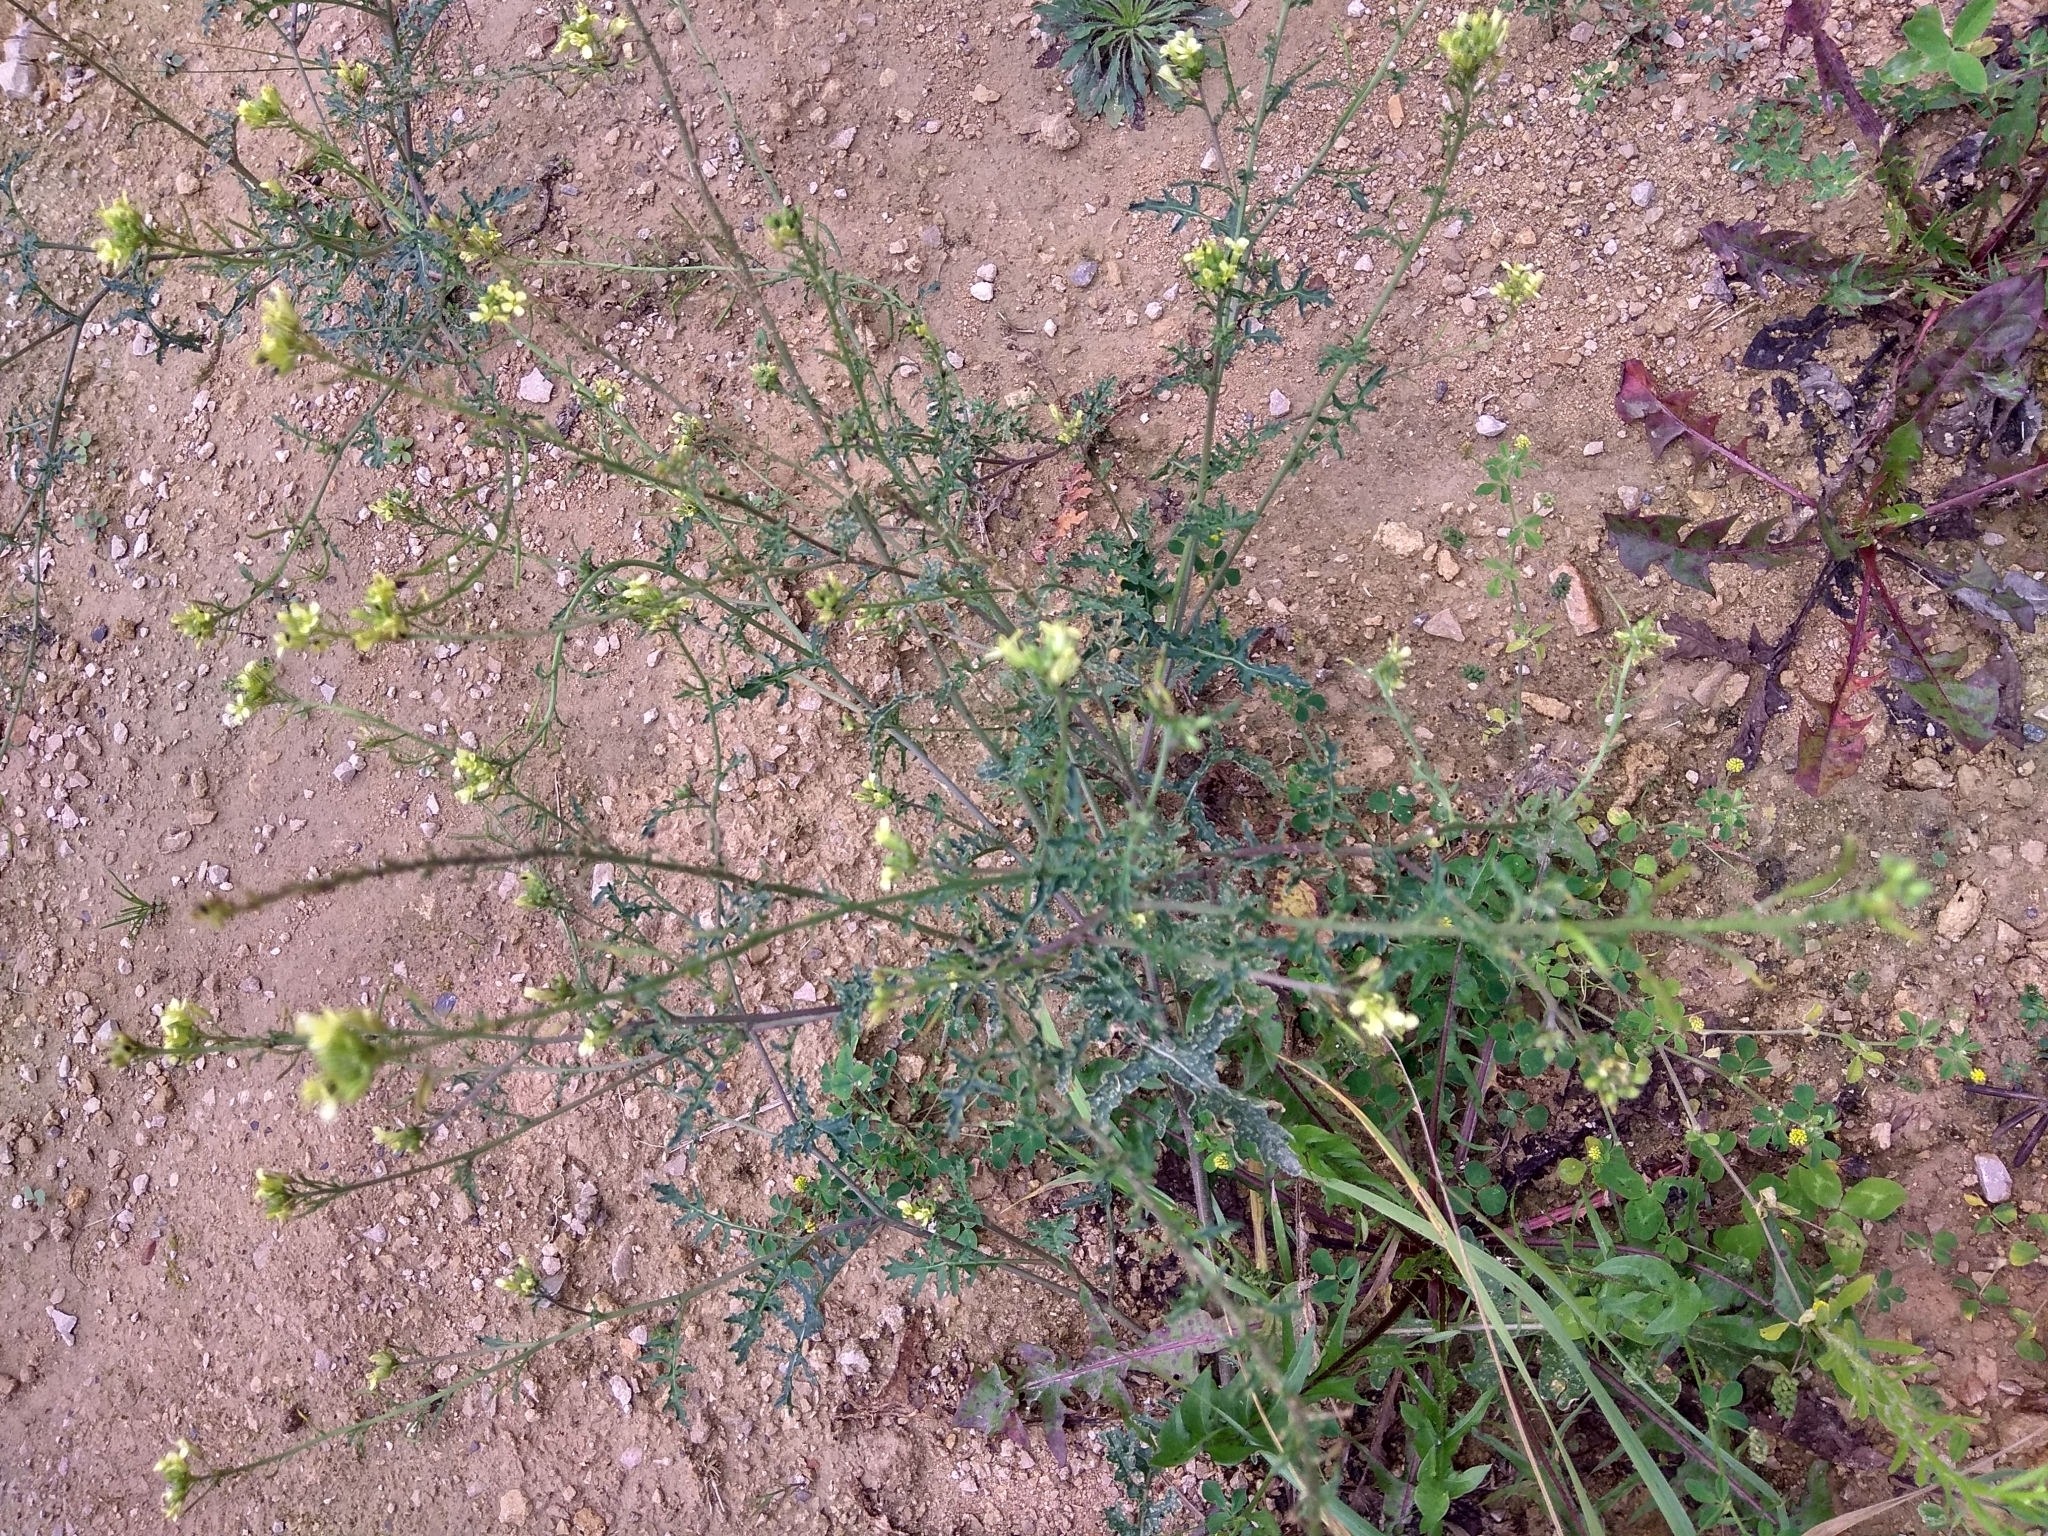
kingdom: Plantae
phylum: Tracheophyta
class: Magnoliopsida
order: Brassicales
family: Brassicaceae
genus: Erucastrum
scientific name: Erucastrum gallicum
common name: Hairy rocket
